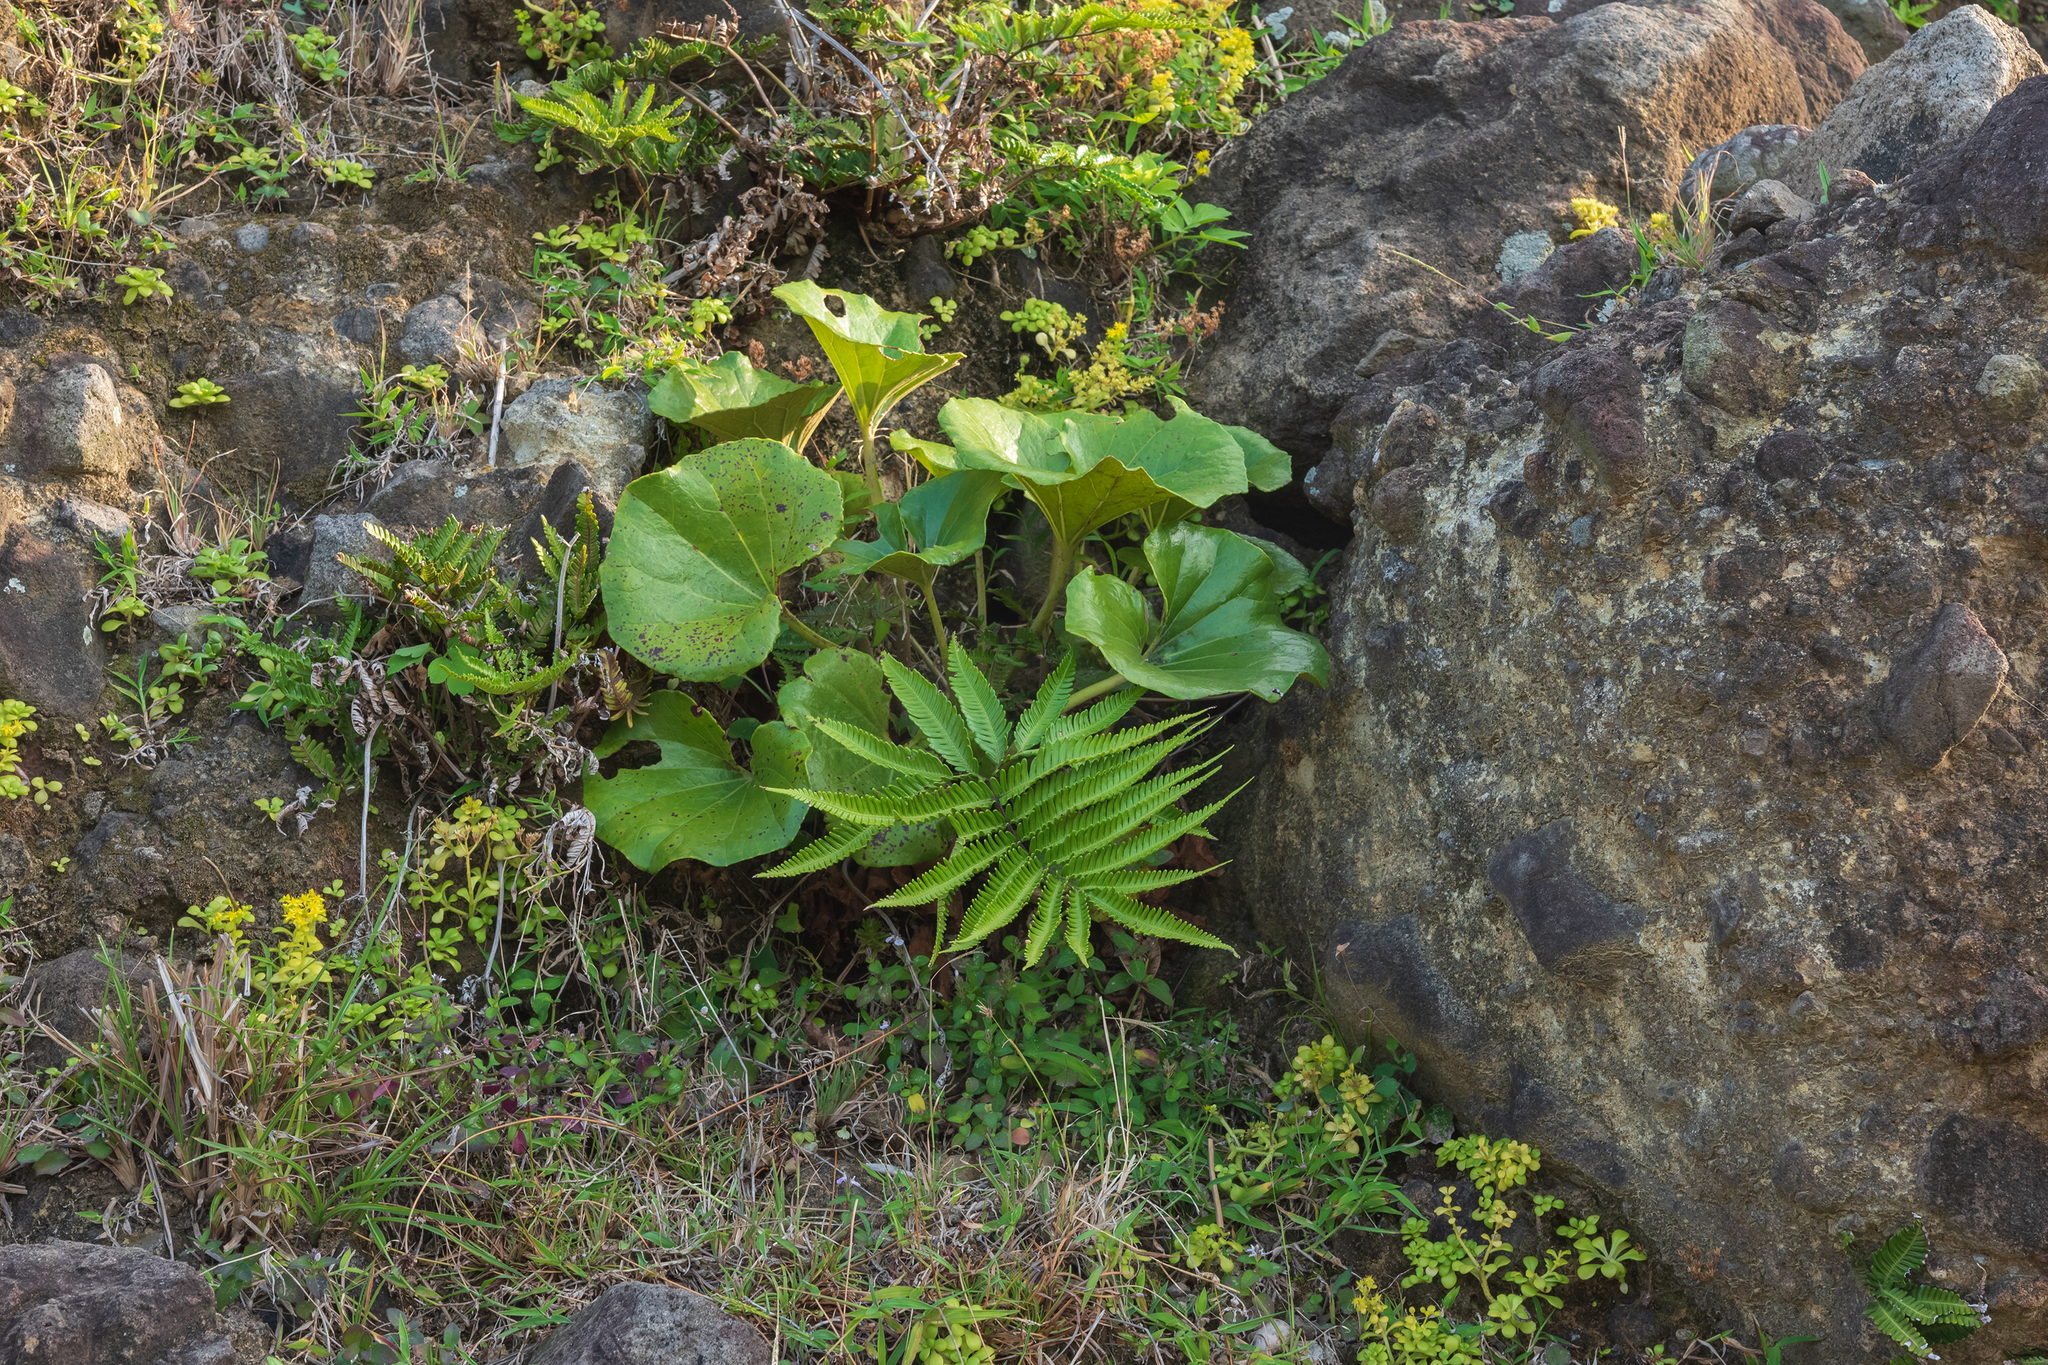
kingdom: Plantae
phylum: Tracheophyta
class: Magnoliopsida
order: Asterales
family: Asteraceae
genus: Farfugium
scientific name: Farfugium japonicum
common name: Leopardplant
